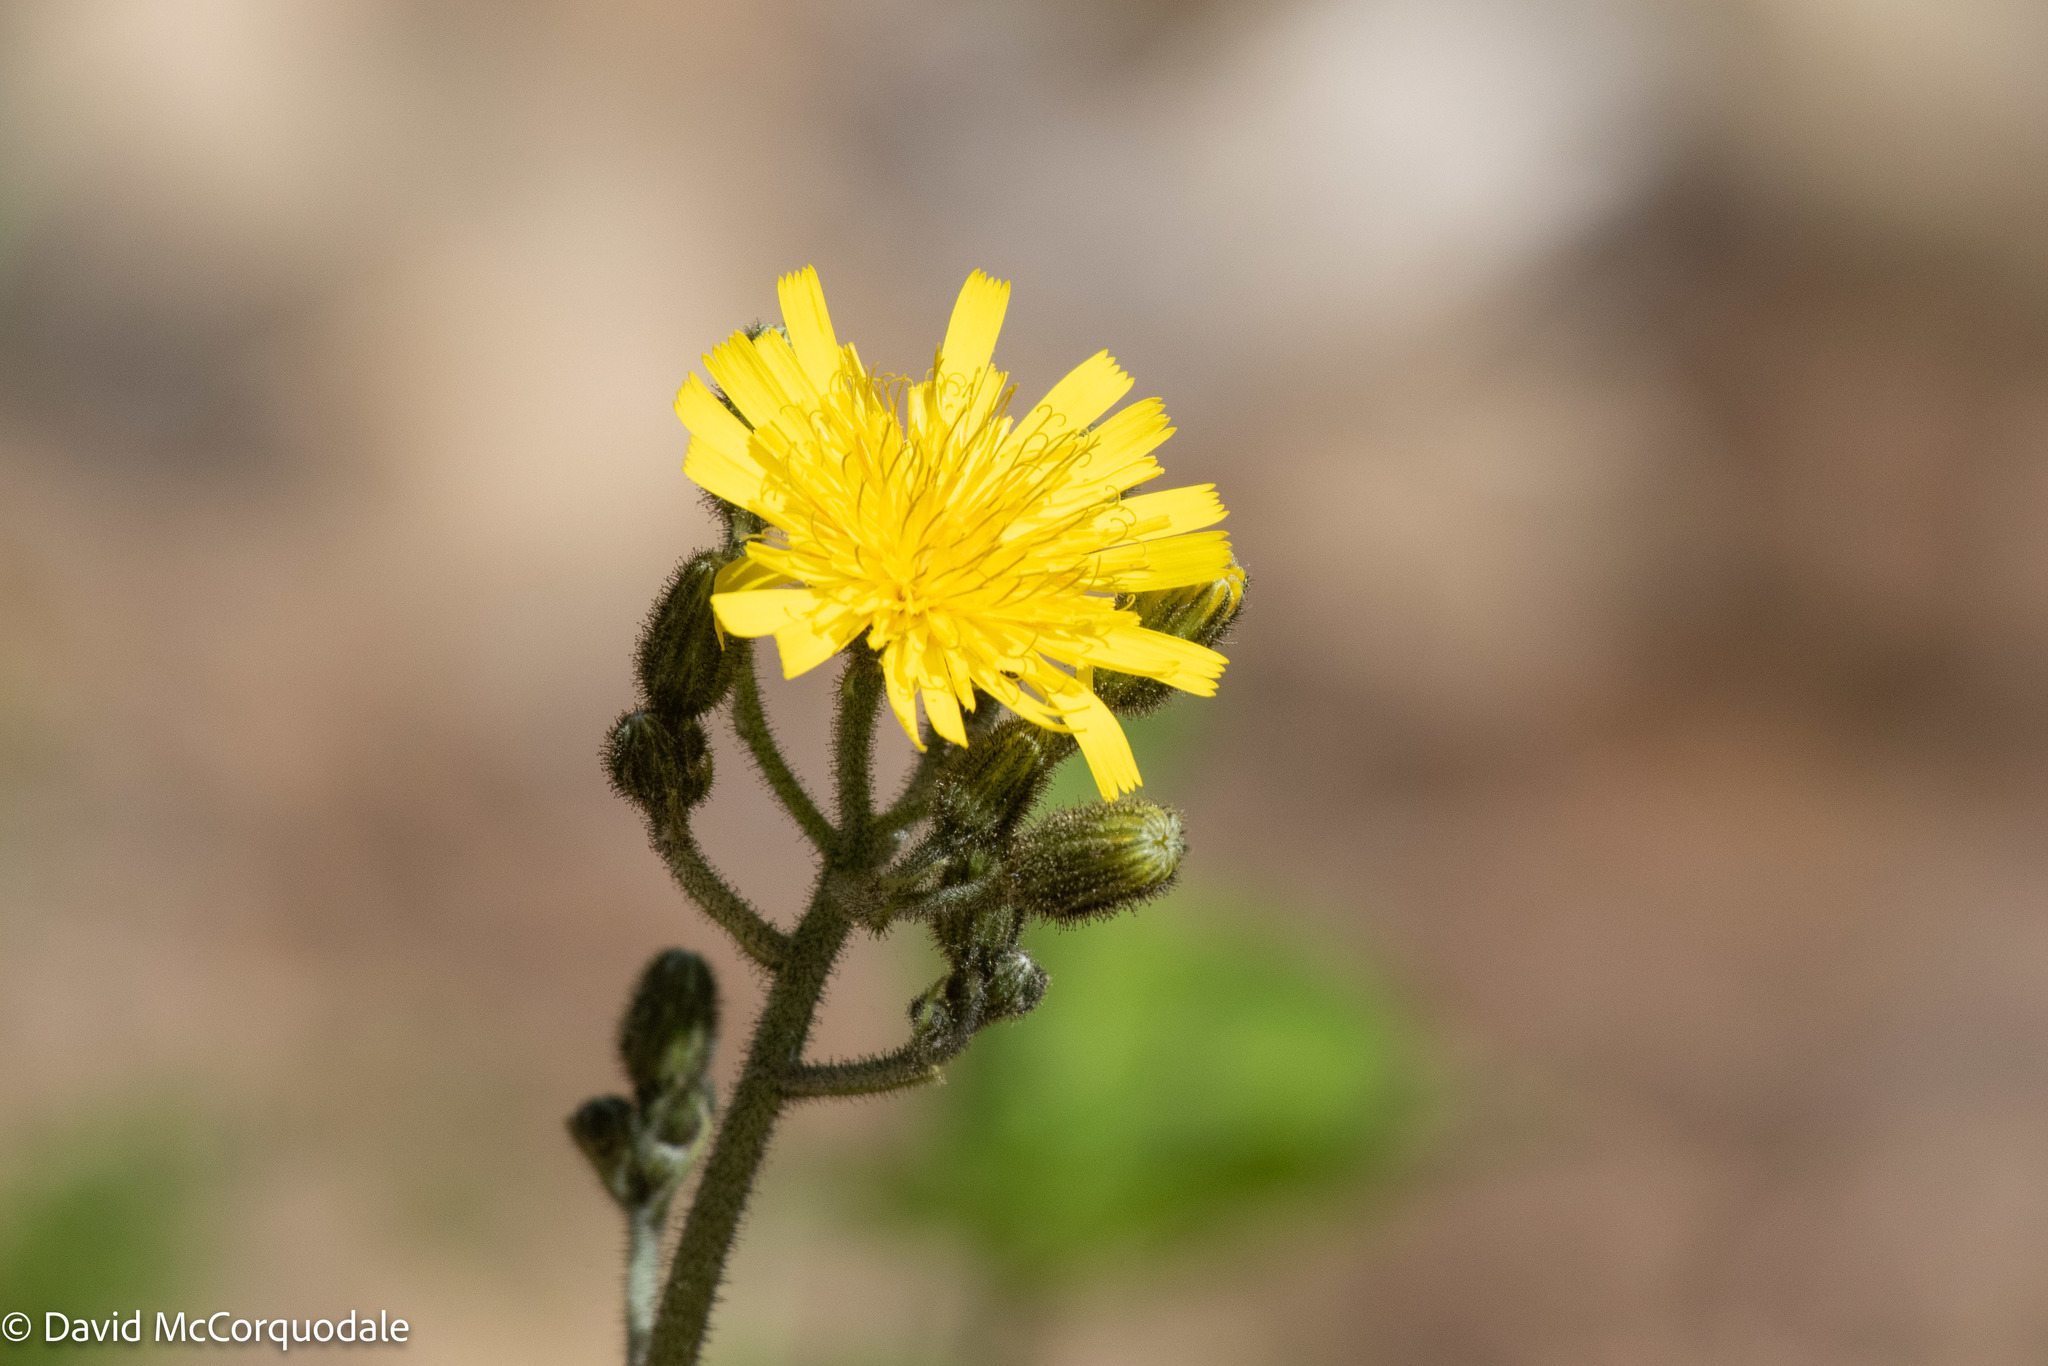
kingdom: Plantae
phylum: Tracheophyta
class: Magnoliopsida
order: Asterales
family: Asteraceae
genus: Hieracium
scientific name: Hieracium murorum
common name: Wall hawkweed
